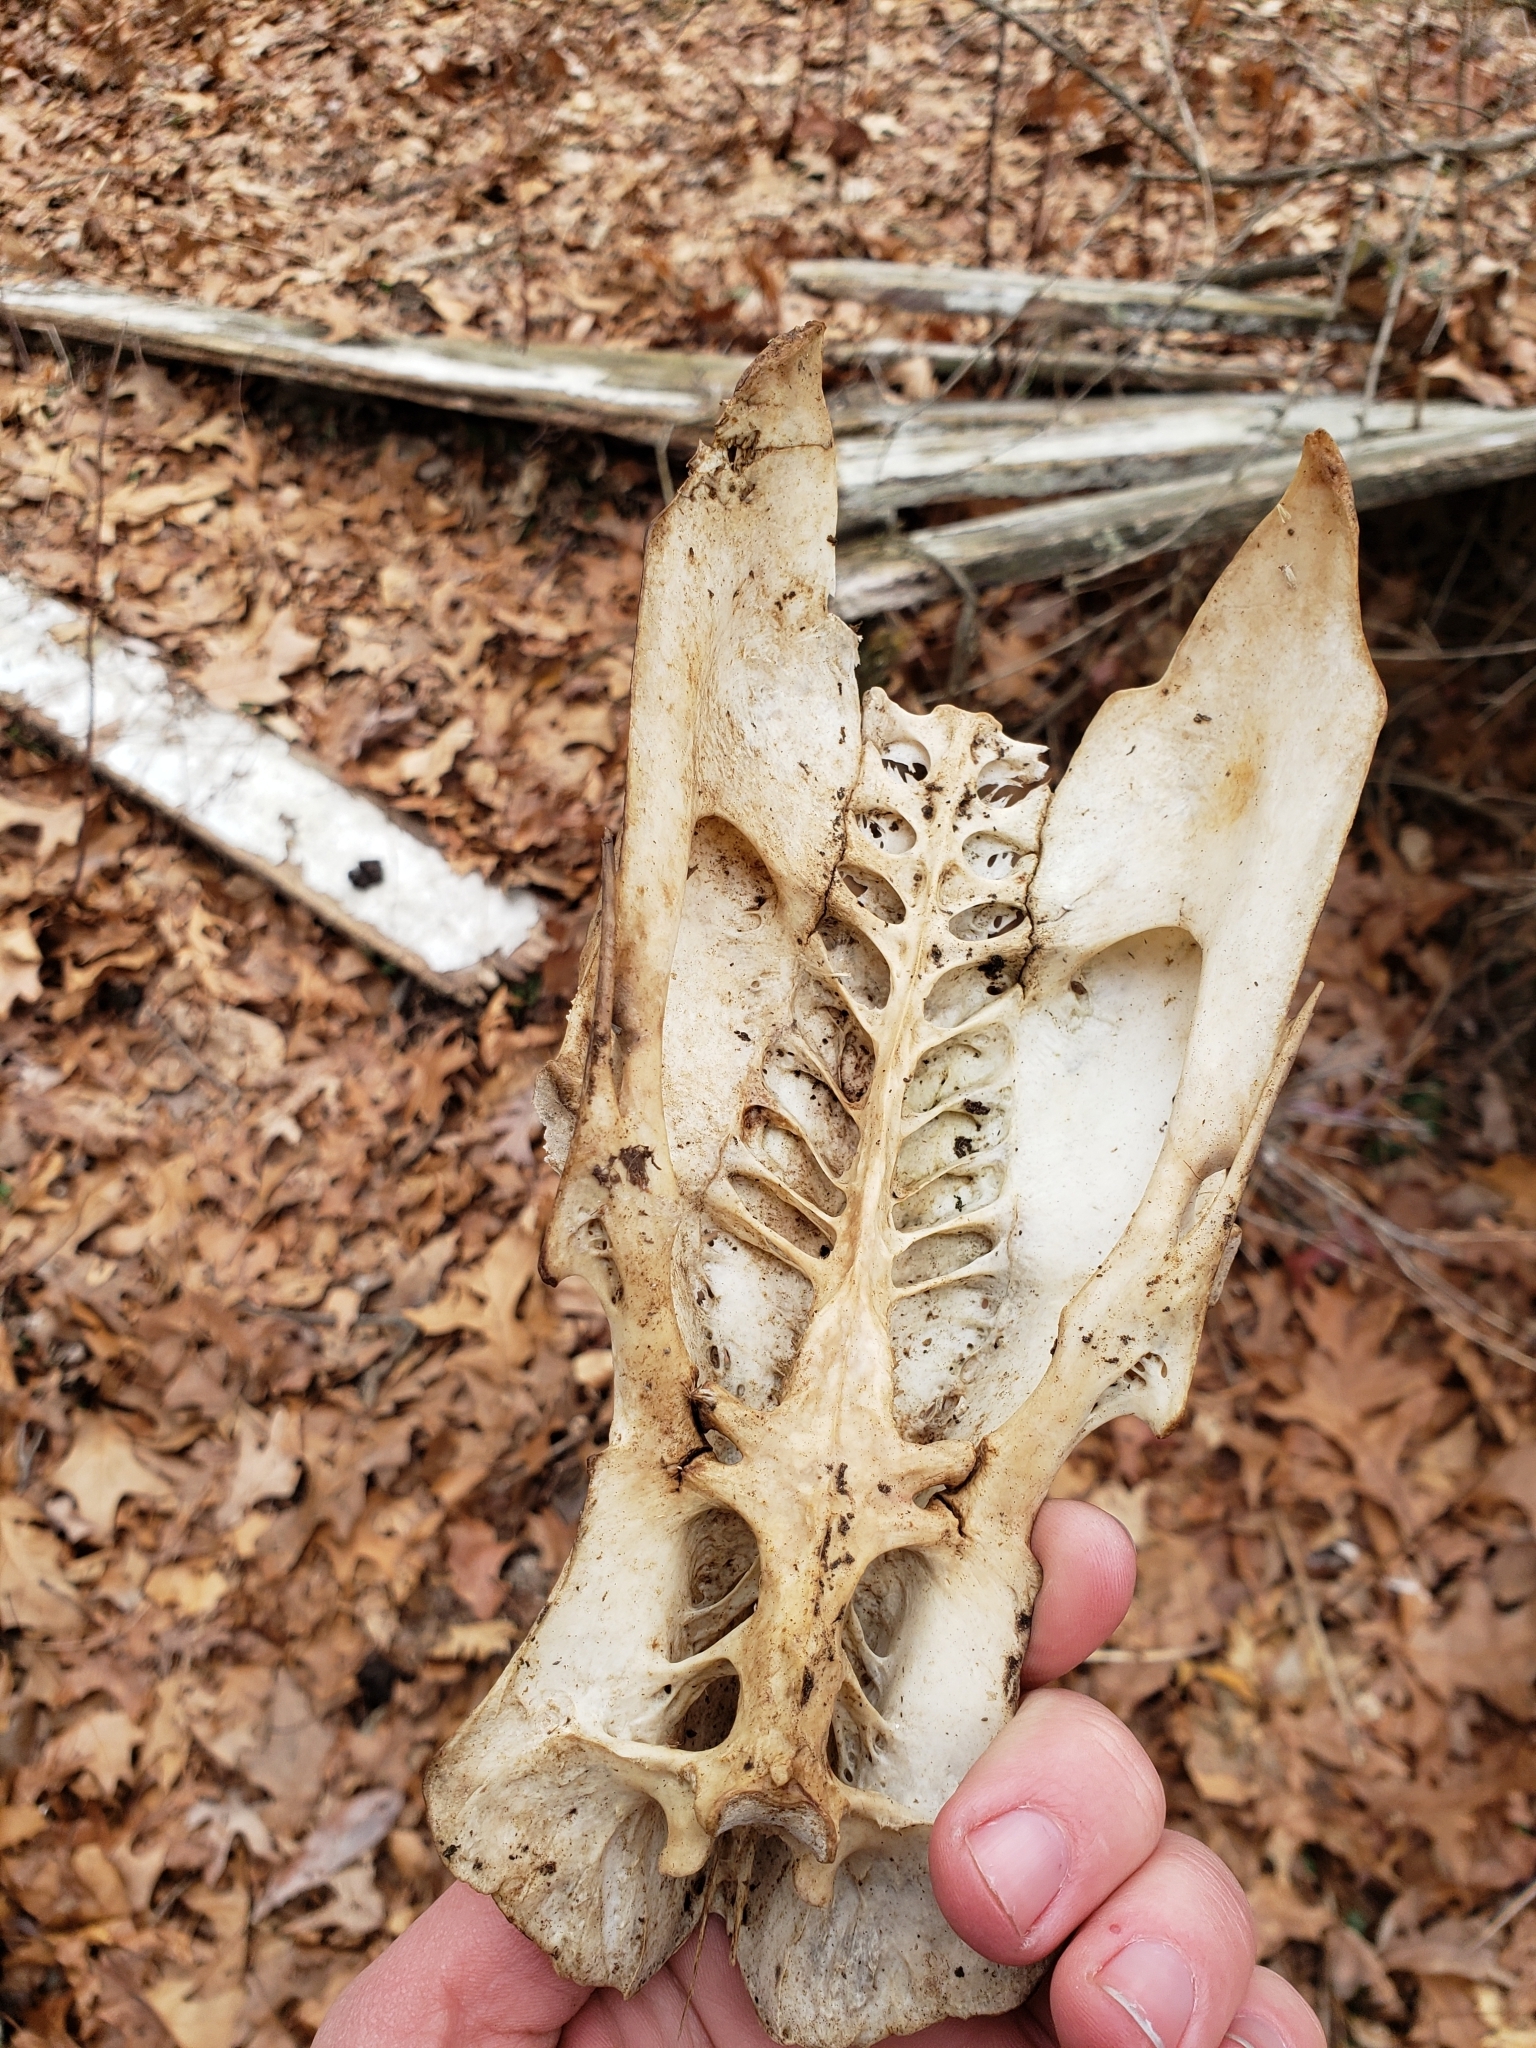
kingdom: Animalia
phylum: Chordata
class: Aves
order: Galliformes
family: Phasianidae
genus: Meleagris
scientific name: Meleagris gallopavo
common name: Wild turkey
